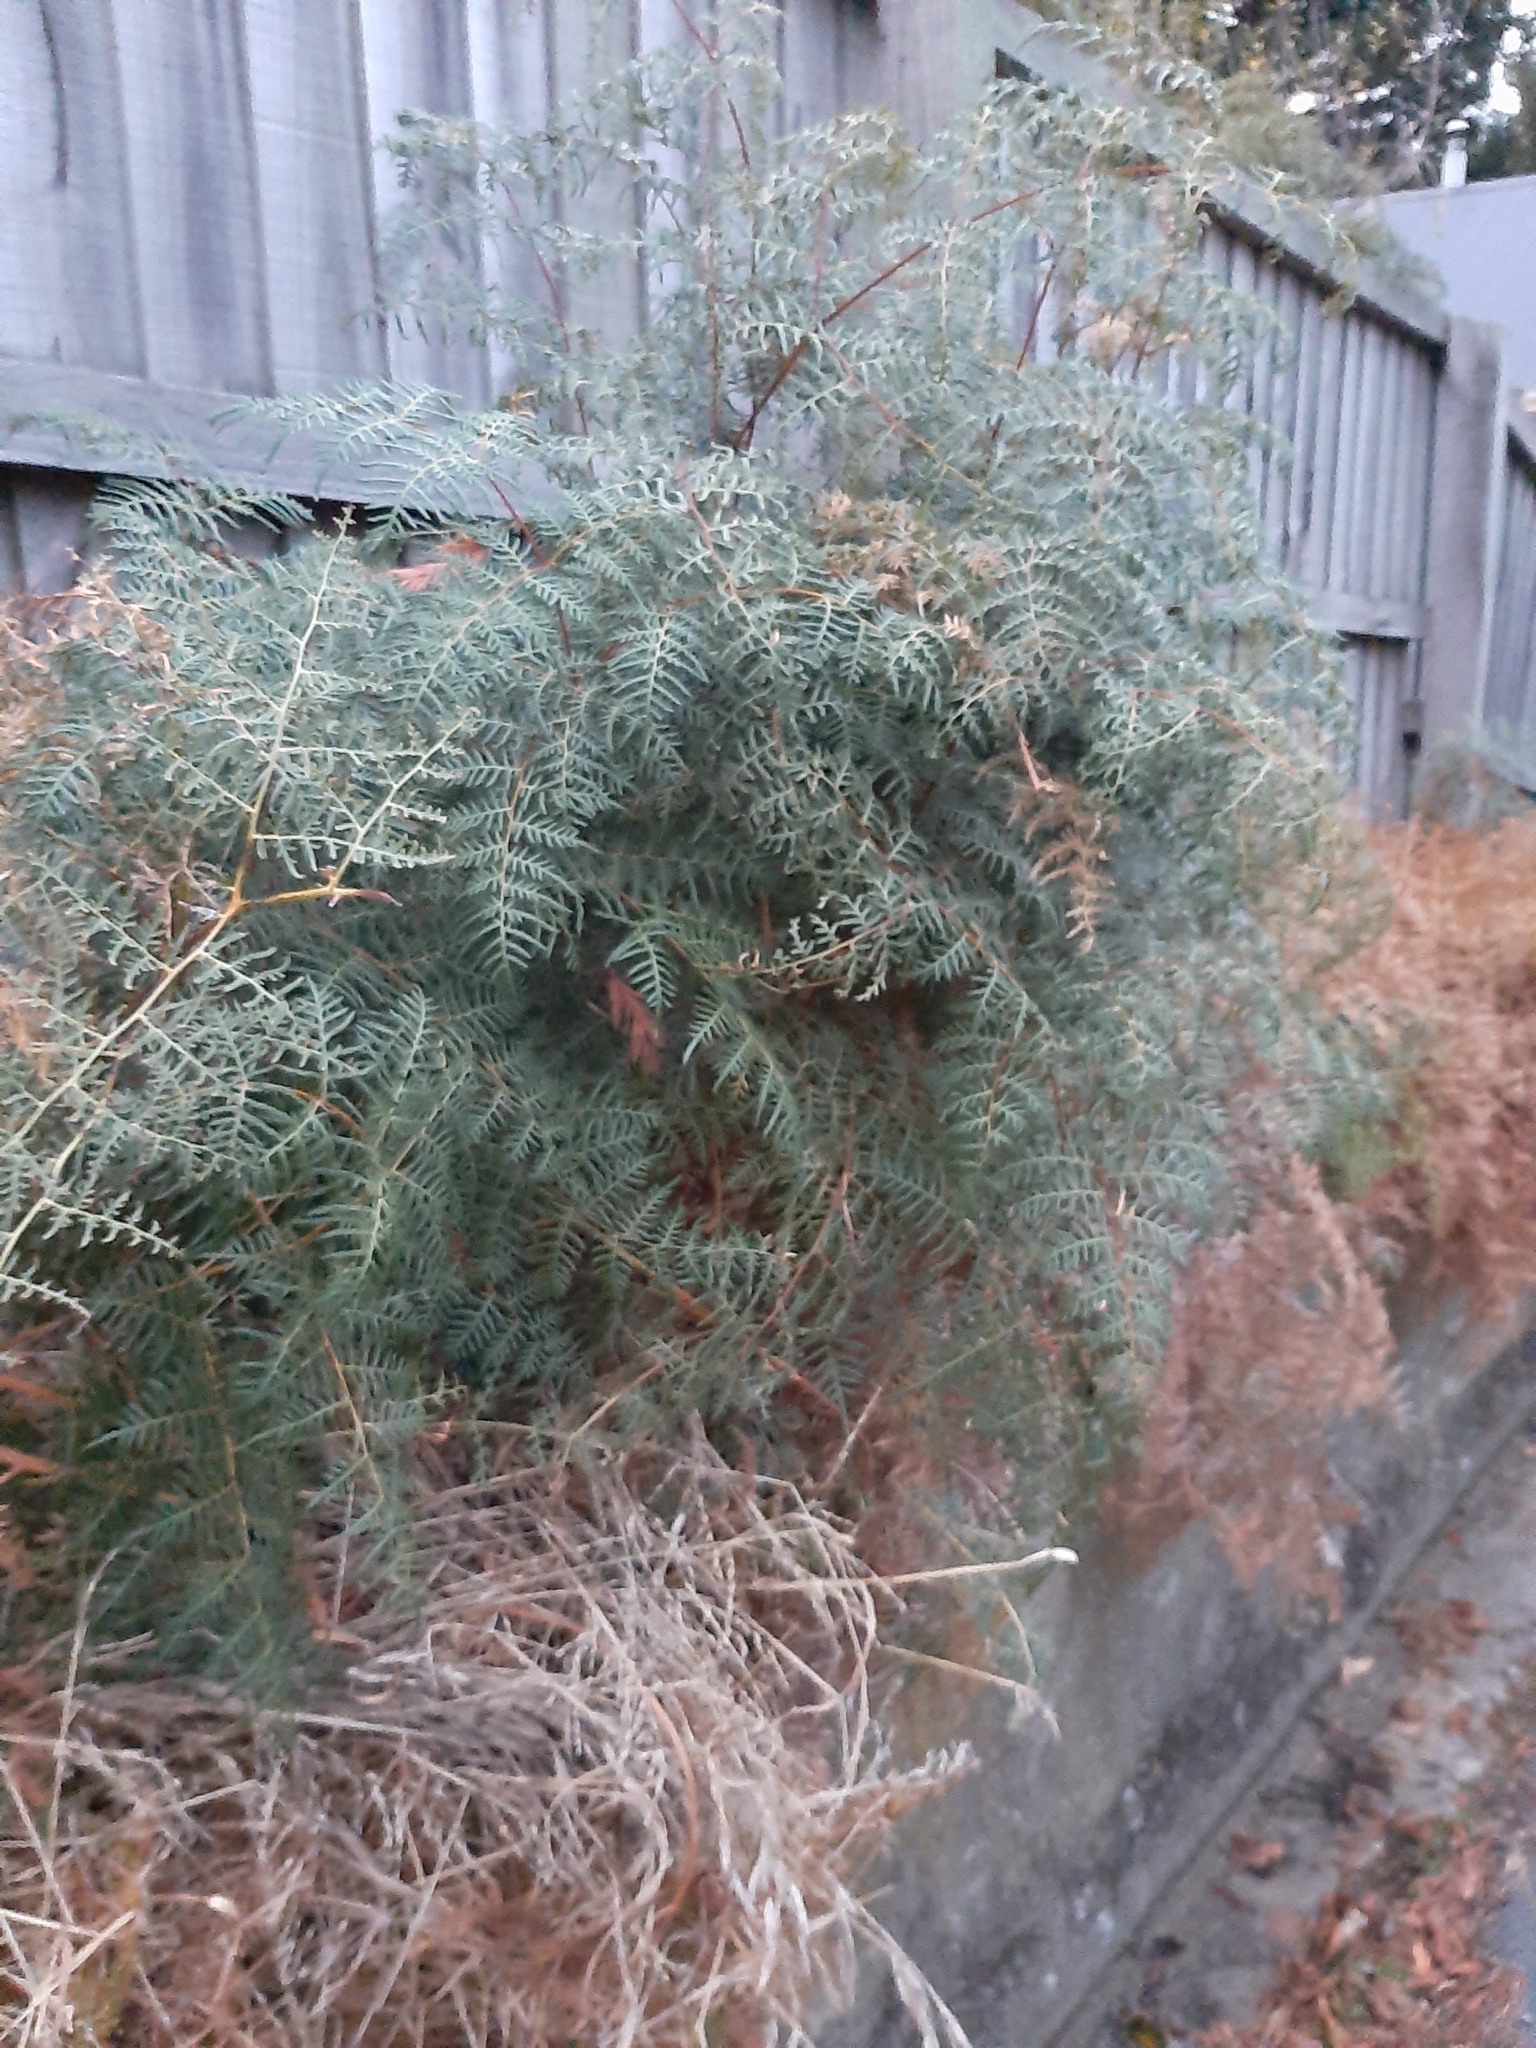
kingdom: Plantae
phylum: Tracheophyta
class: Polypodiopsida
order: Polypodiales
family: Dennstaedtiaceae
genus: Pteridium
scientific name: Pteridium esculentum
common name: Bracken fern
